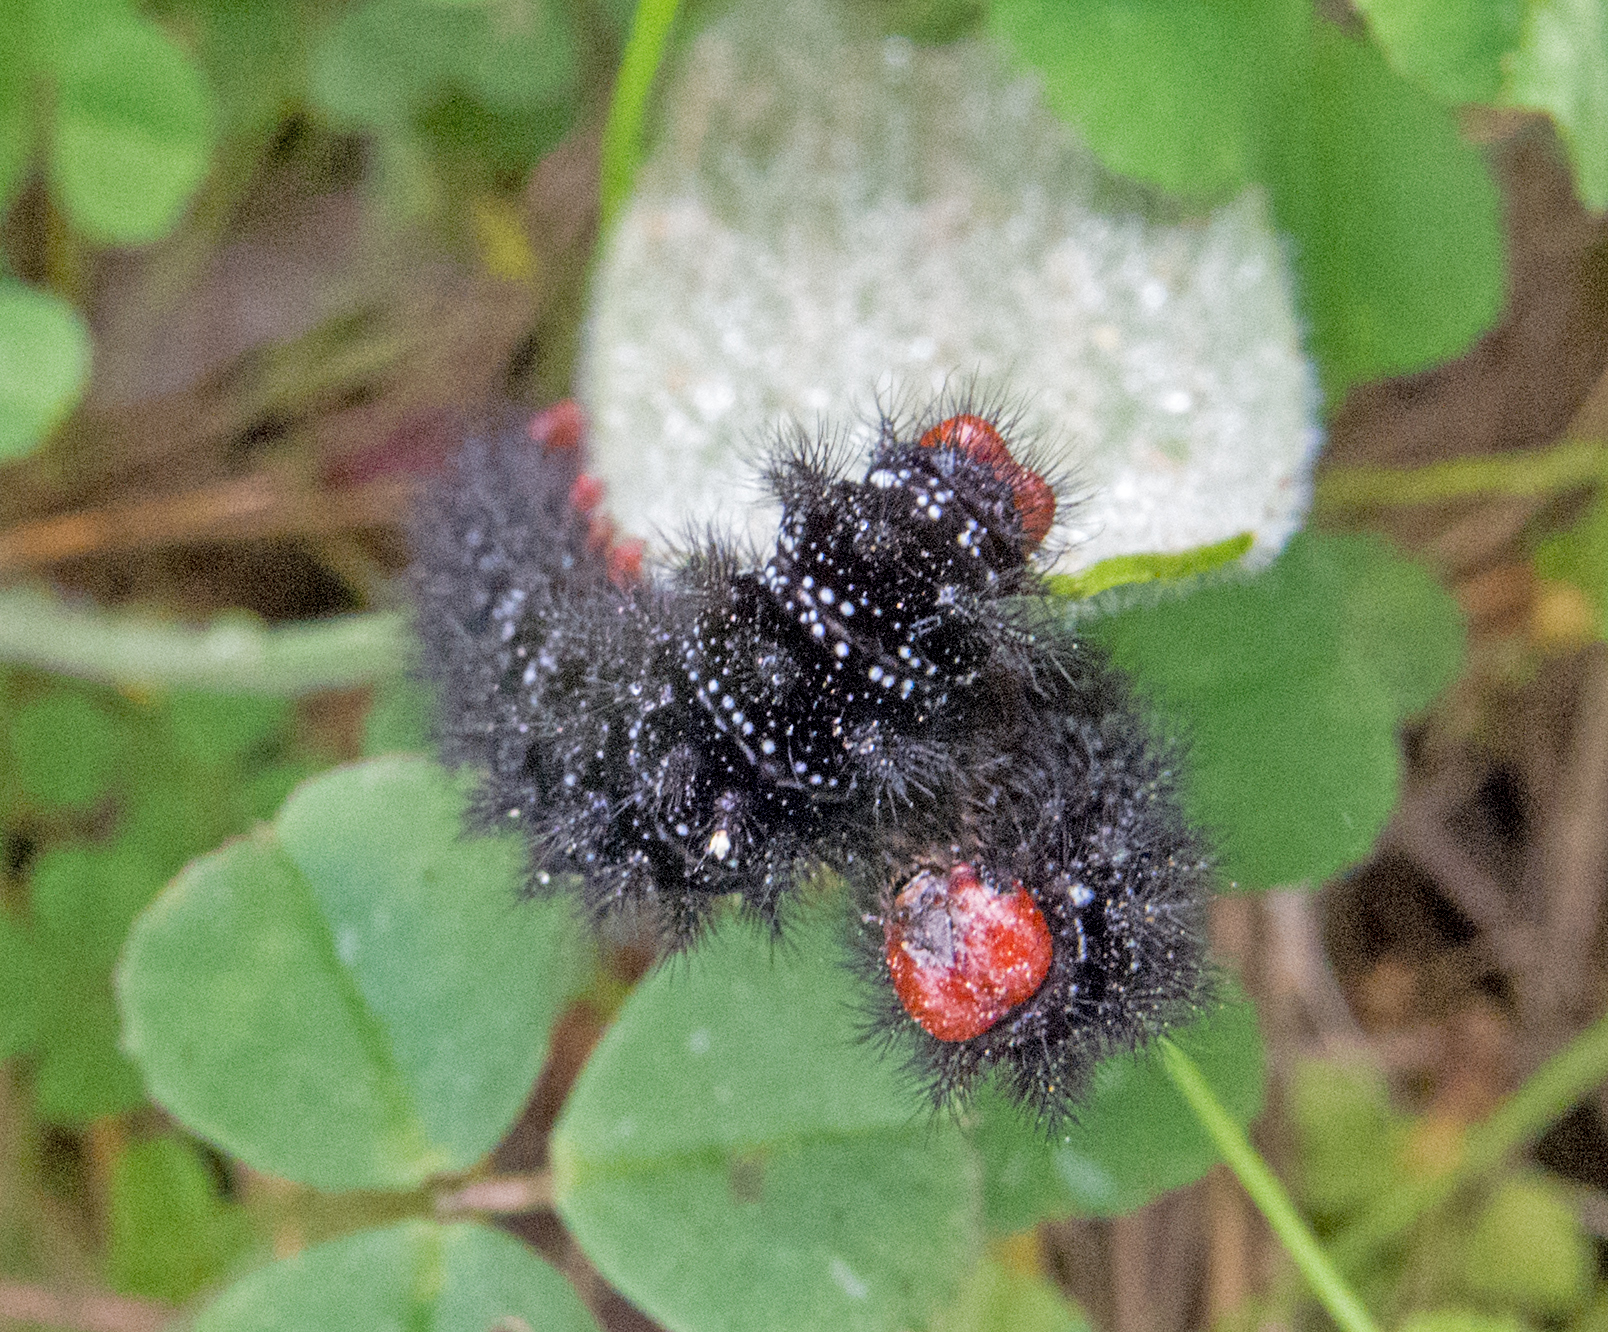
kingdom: Animalia
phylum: Arthropoda
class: Insecta
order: Lepidoptera
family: Nymphalidae
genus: Melitaea
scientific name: Melitaea cinxia
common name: Glanville fritillary
